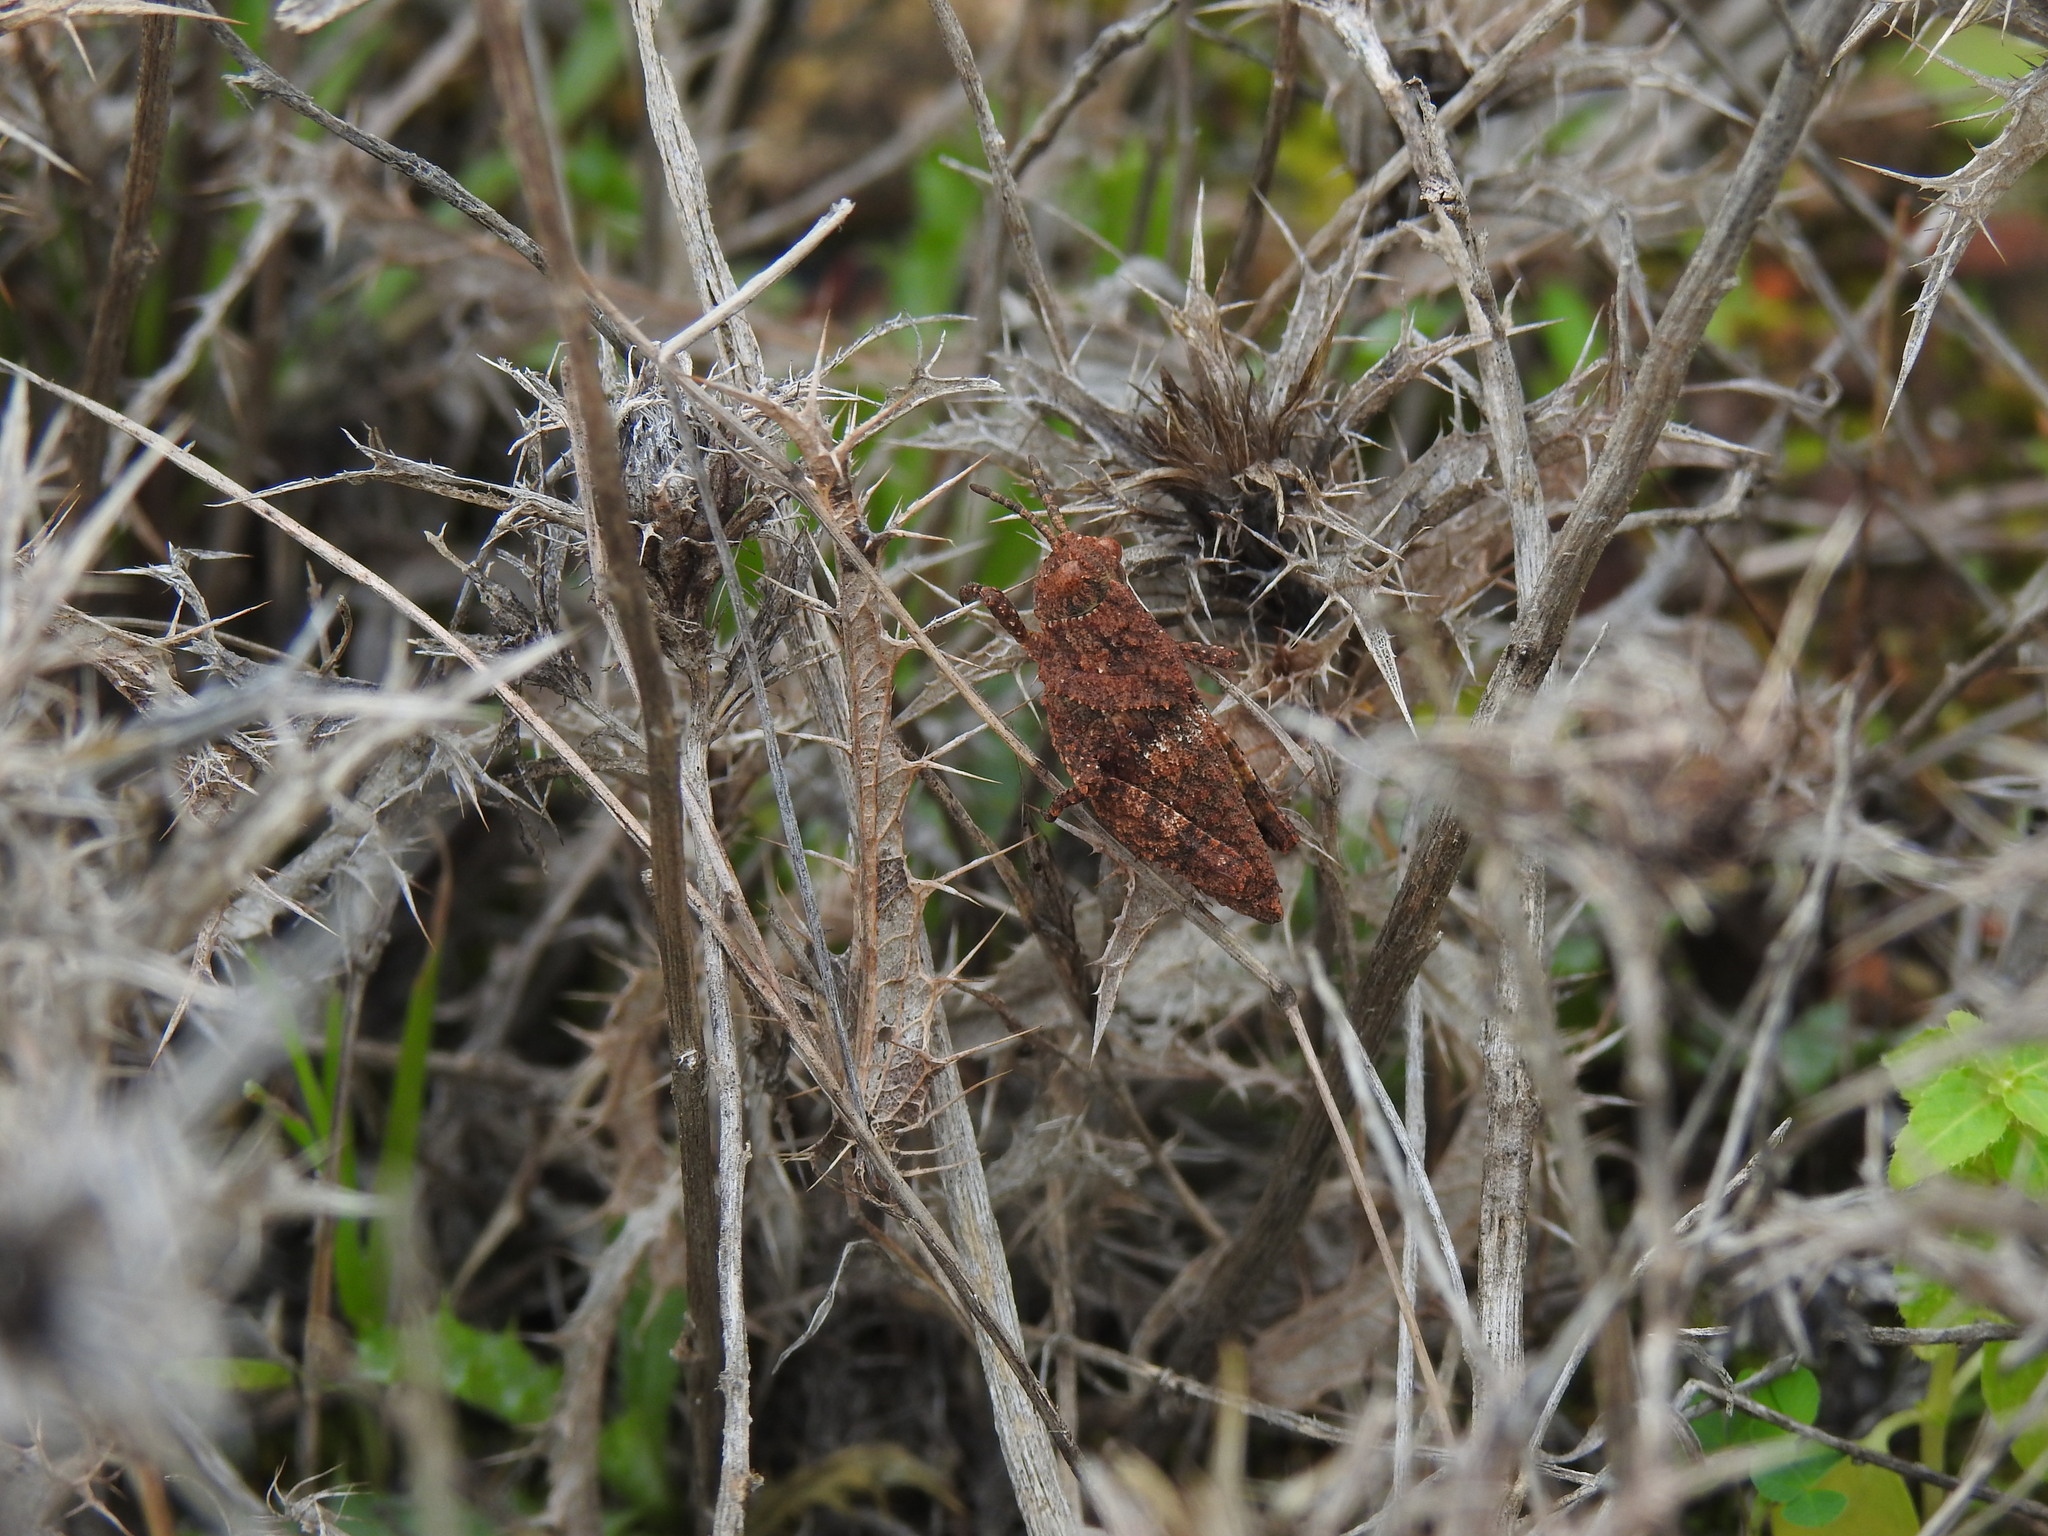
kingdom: Animalia
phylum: Arthropoda
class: Insecta
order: Orthoptera
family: Pamphagidae
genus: Ocnerodes
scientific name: Ocnerodes fallaciosus
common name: Misleading stone grasshopper
